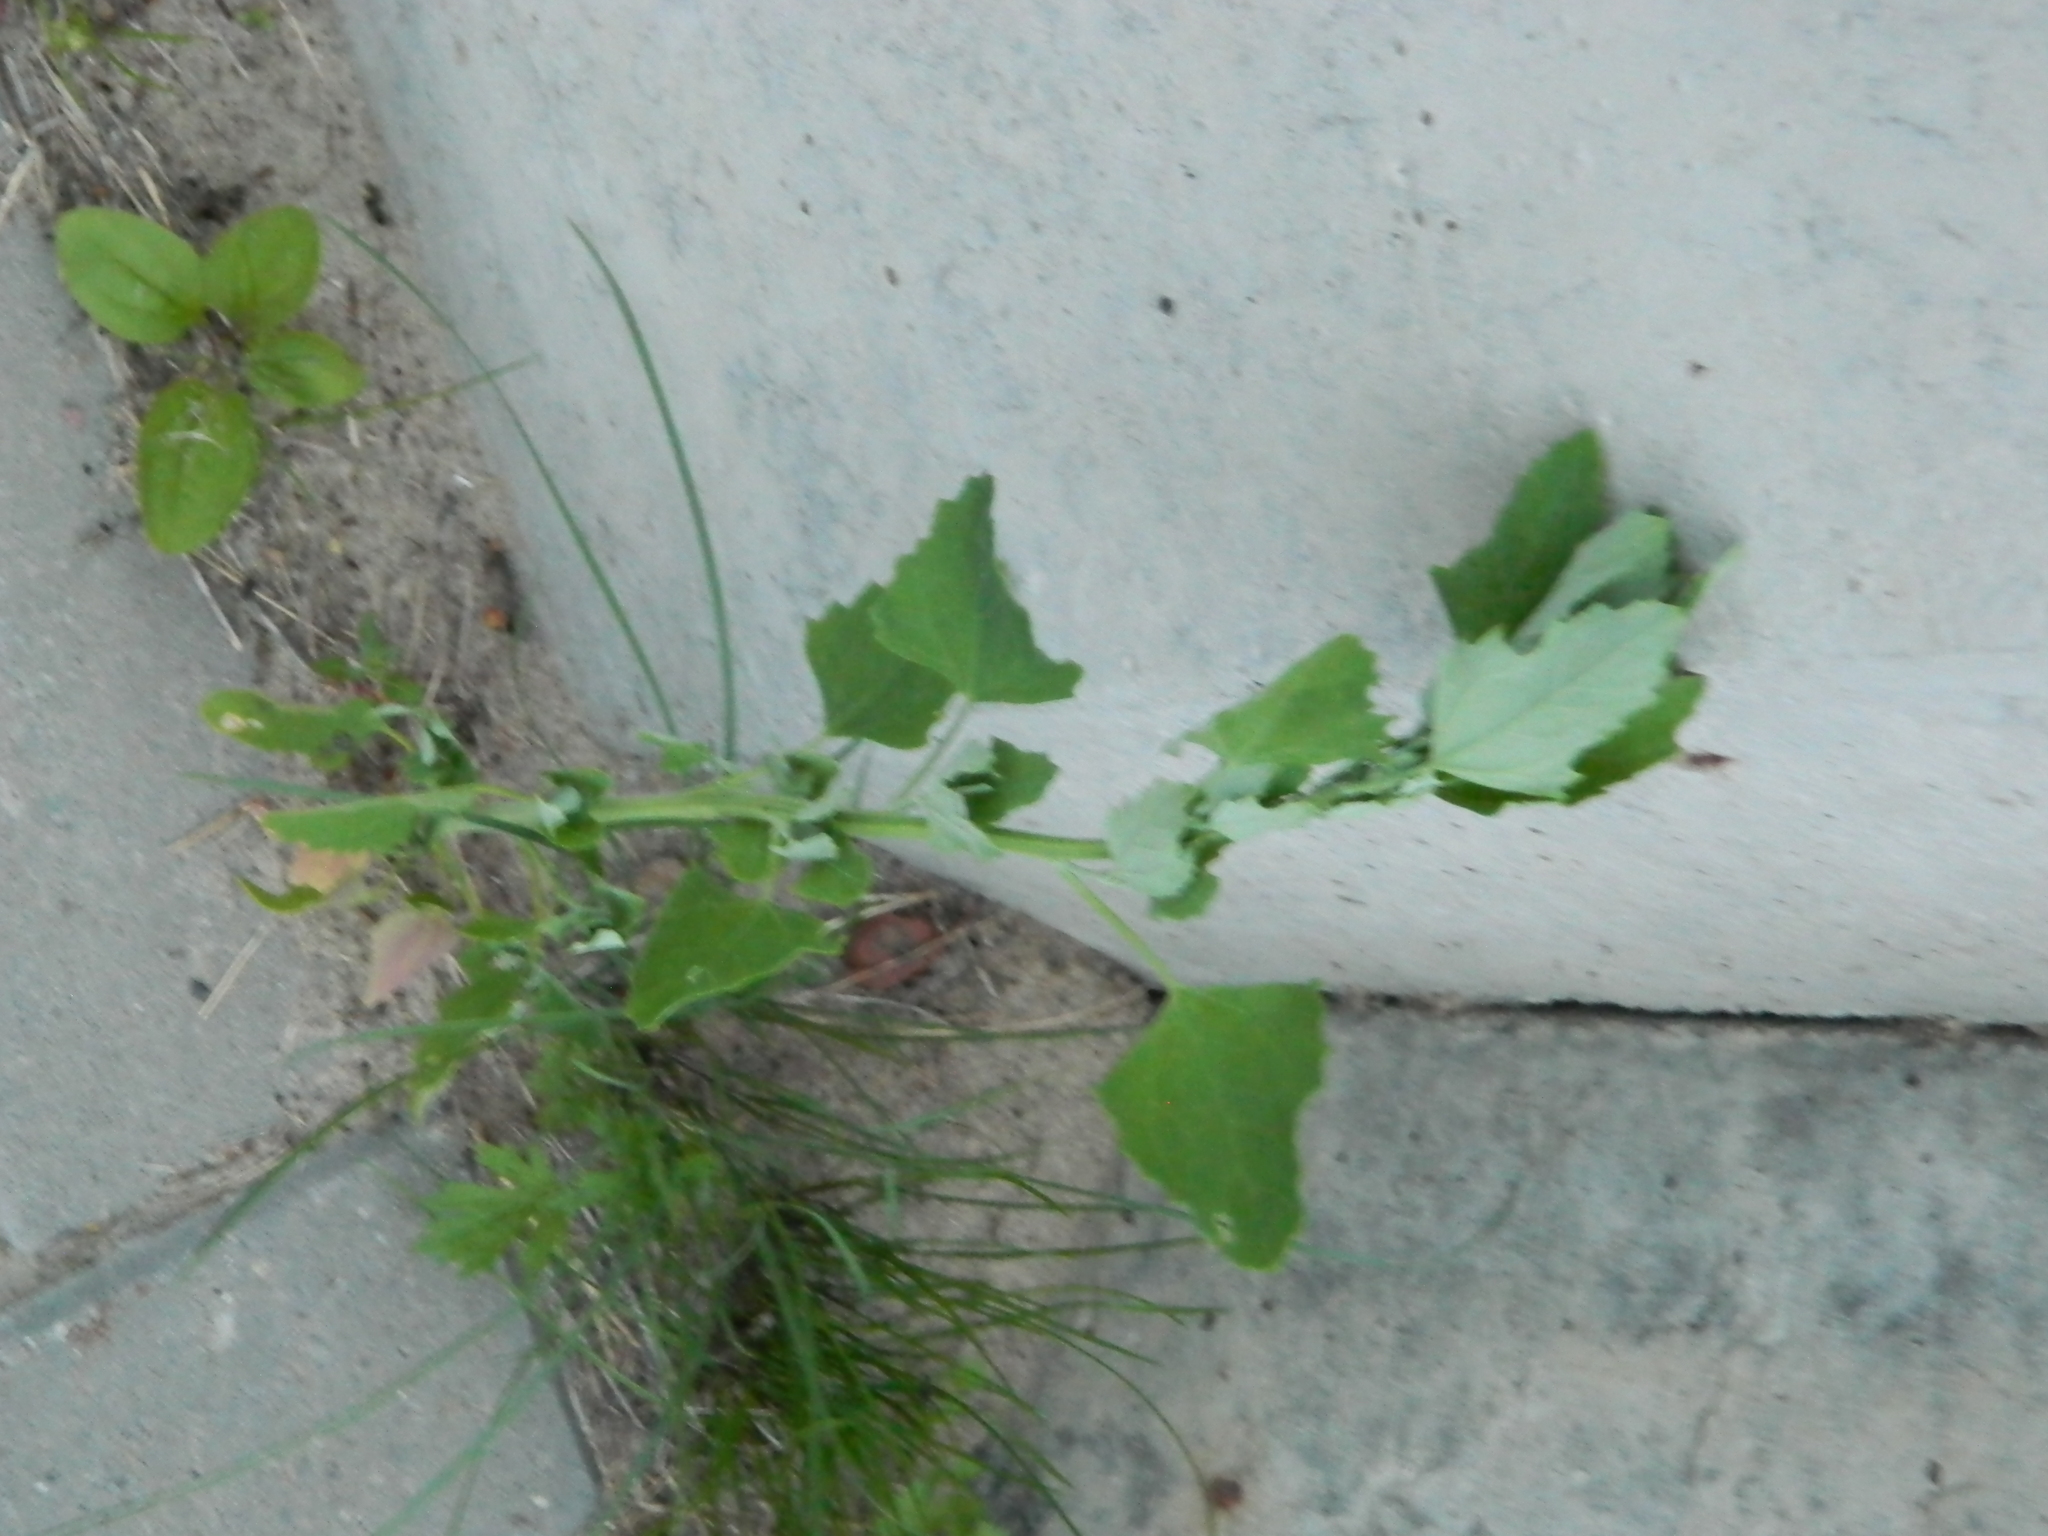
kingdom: Plantae
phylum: Tracheophyta
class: Magnoliopsida
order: Caryophyllales
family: Amaranthaceae
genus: Chenopodium
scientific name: Chenopodium album
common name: Fat-hen
